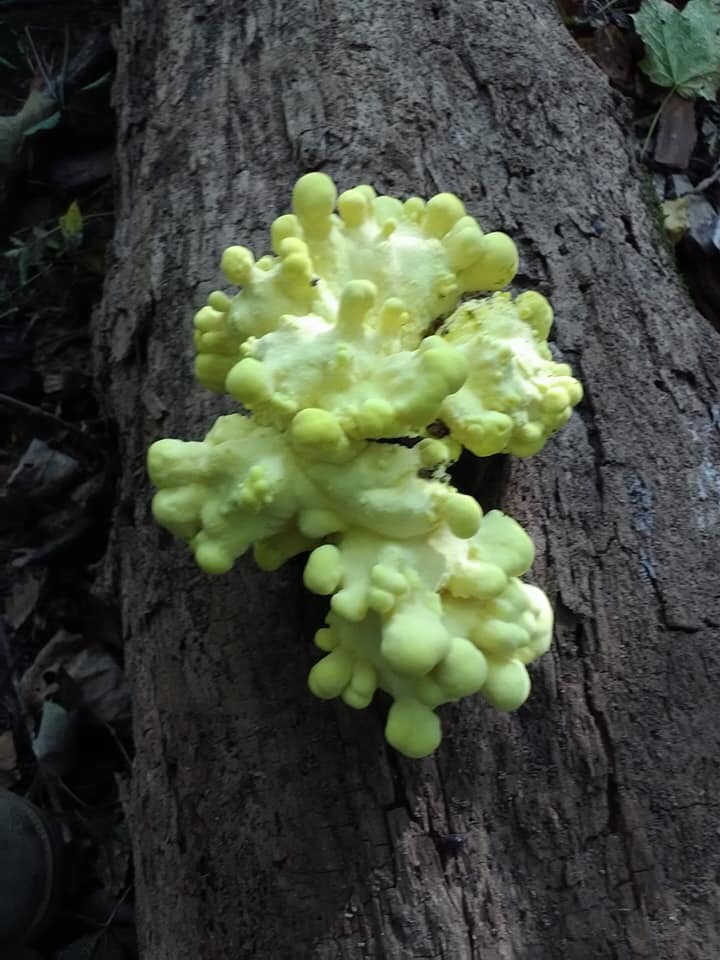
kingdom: Fungi
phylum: Basidiomycota
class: Agaricomycetes
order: Polyporales
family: Laetiporaceae
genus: Laetiporus
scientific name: Laetiporus sulphureus
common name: Chicken of the woods
